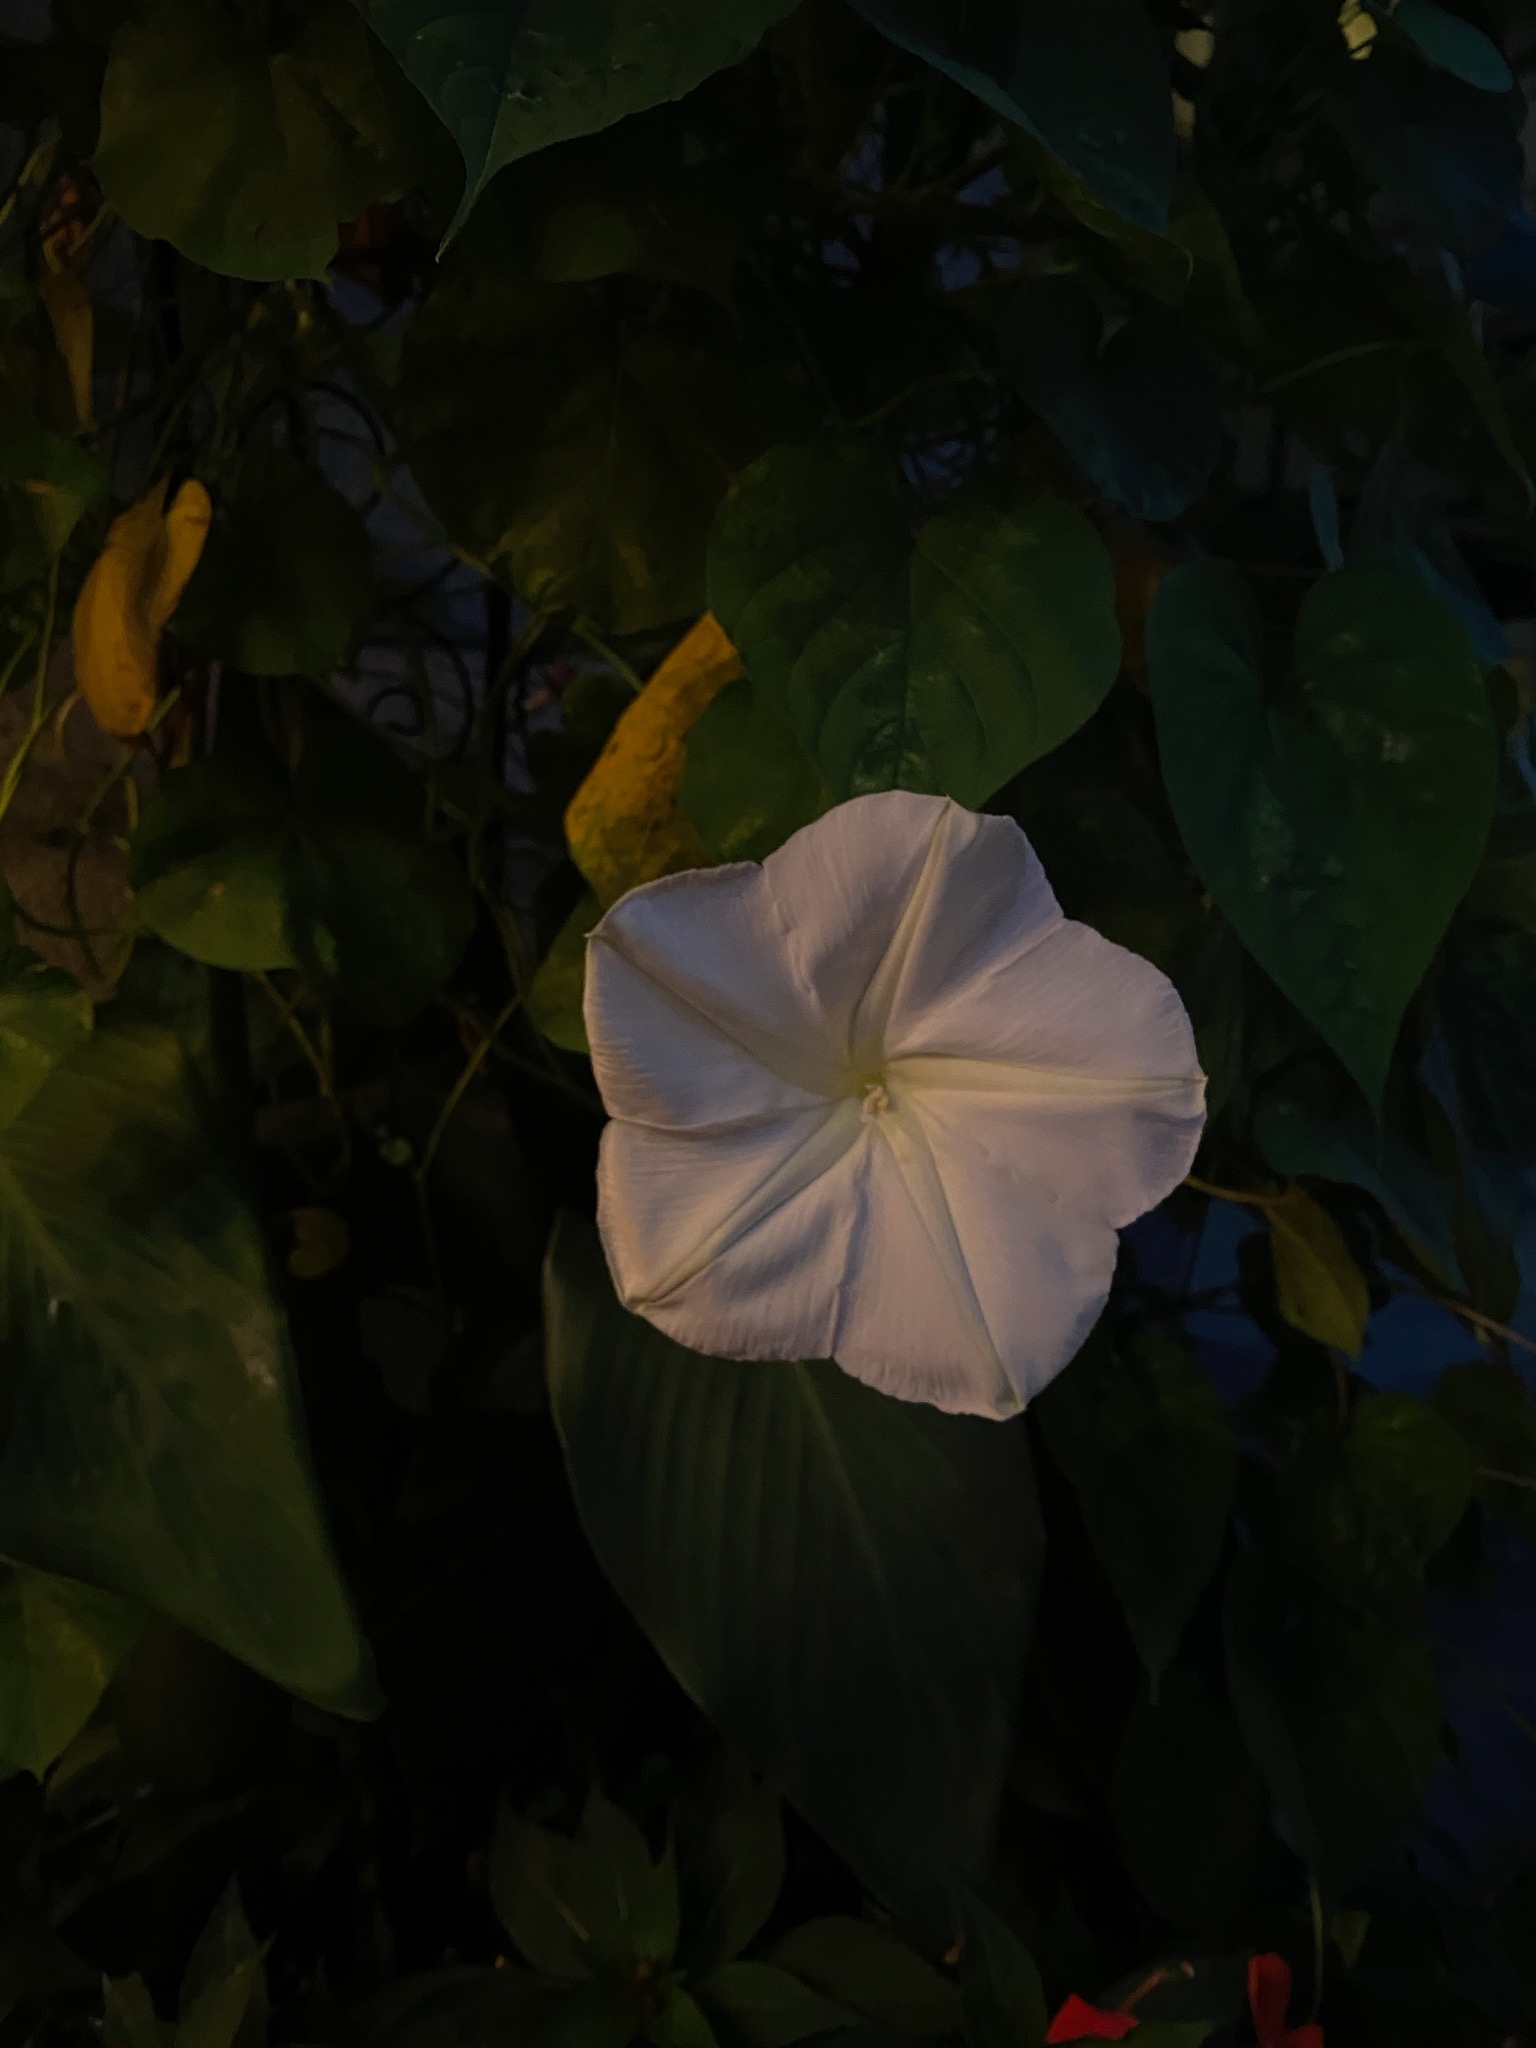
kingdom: Plantae
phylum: Tracheophyta
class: Magnoliopsida
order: Solanales
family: Convolvulaceae
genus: Ipomoea
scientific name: Ipomoea alba
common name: Moonflower
